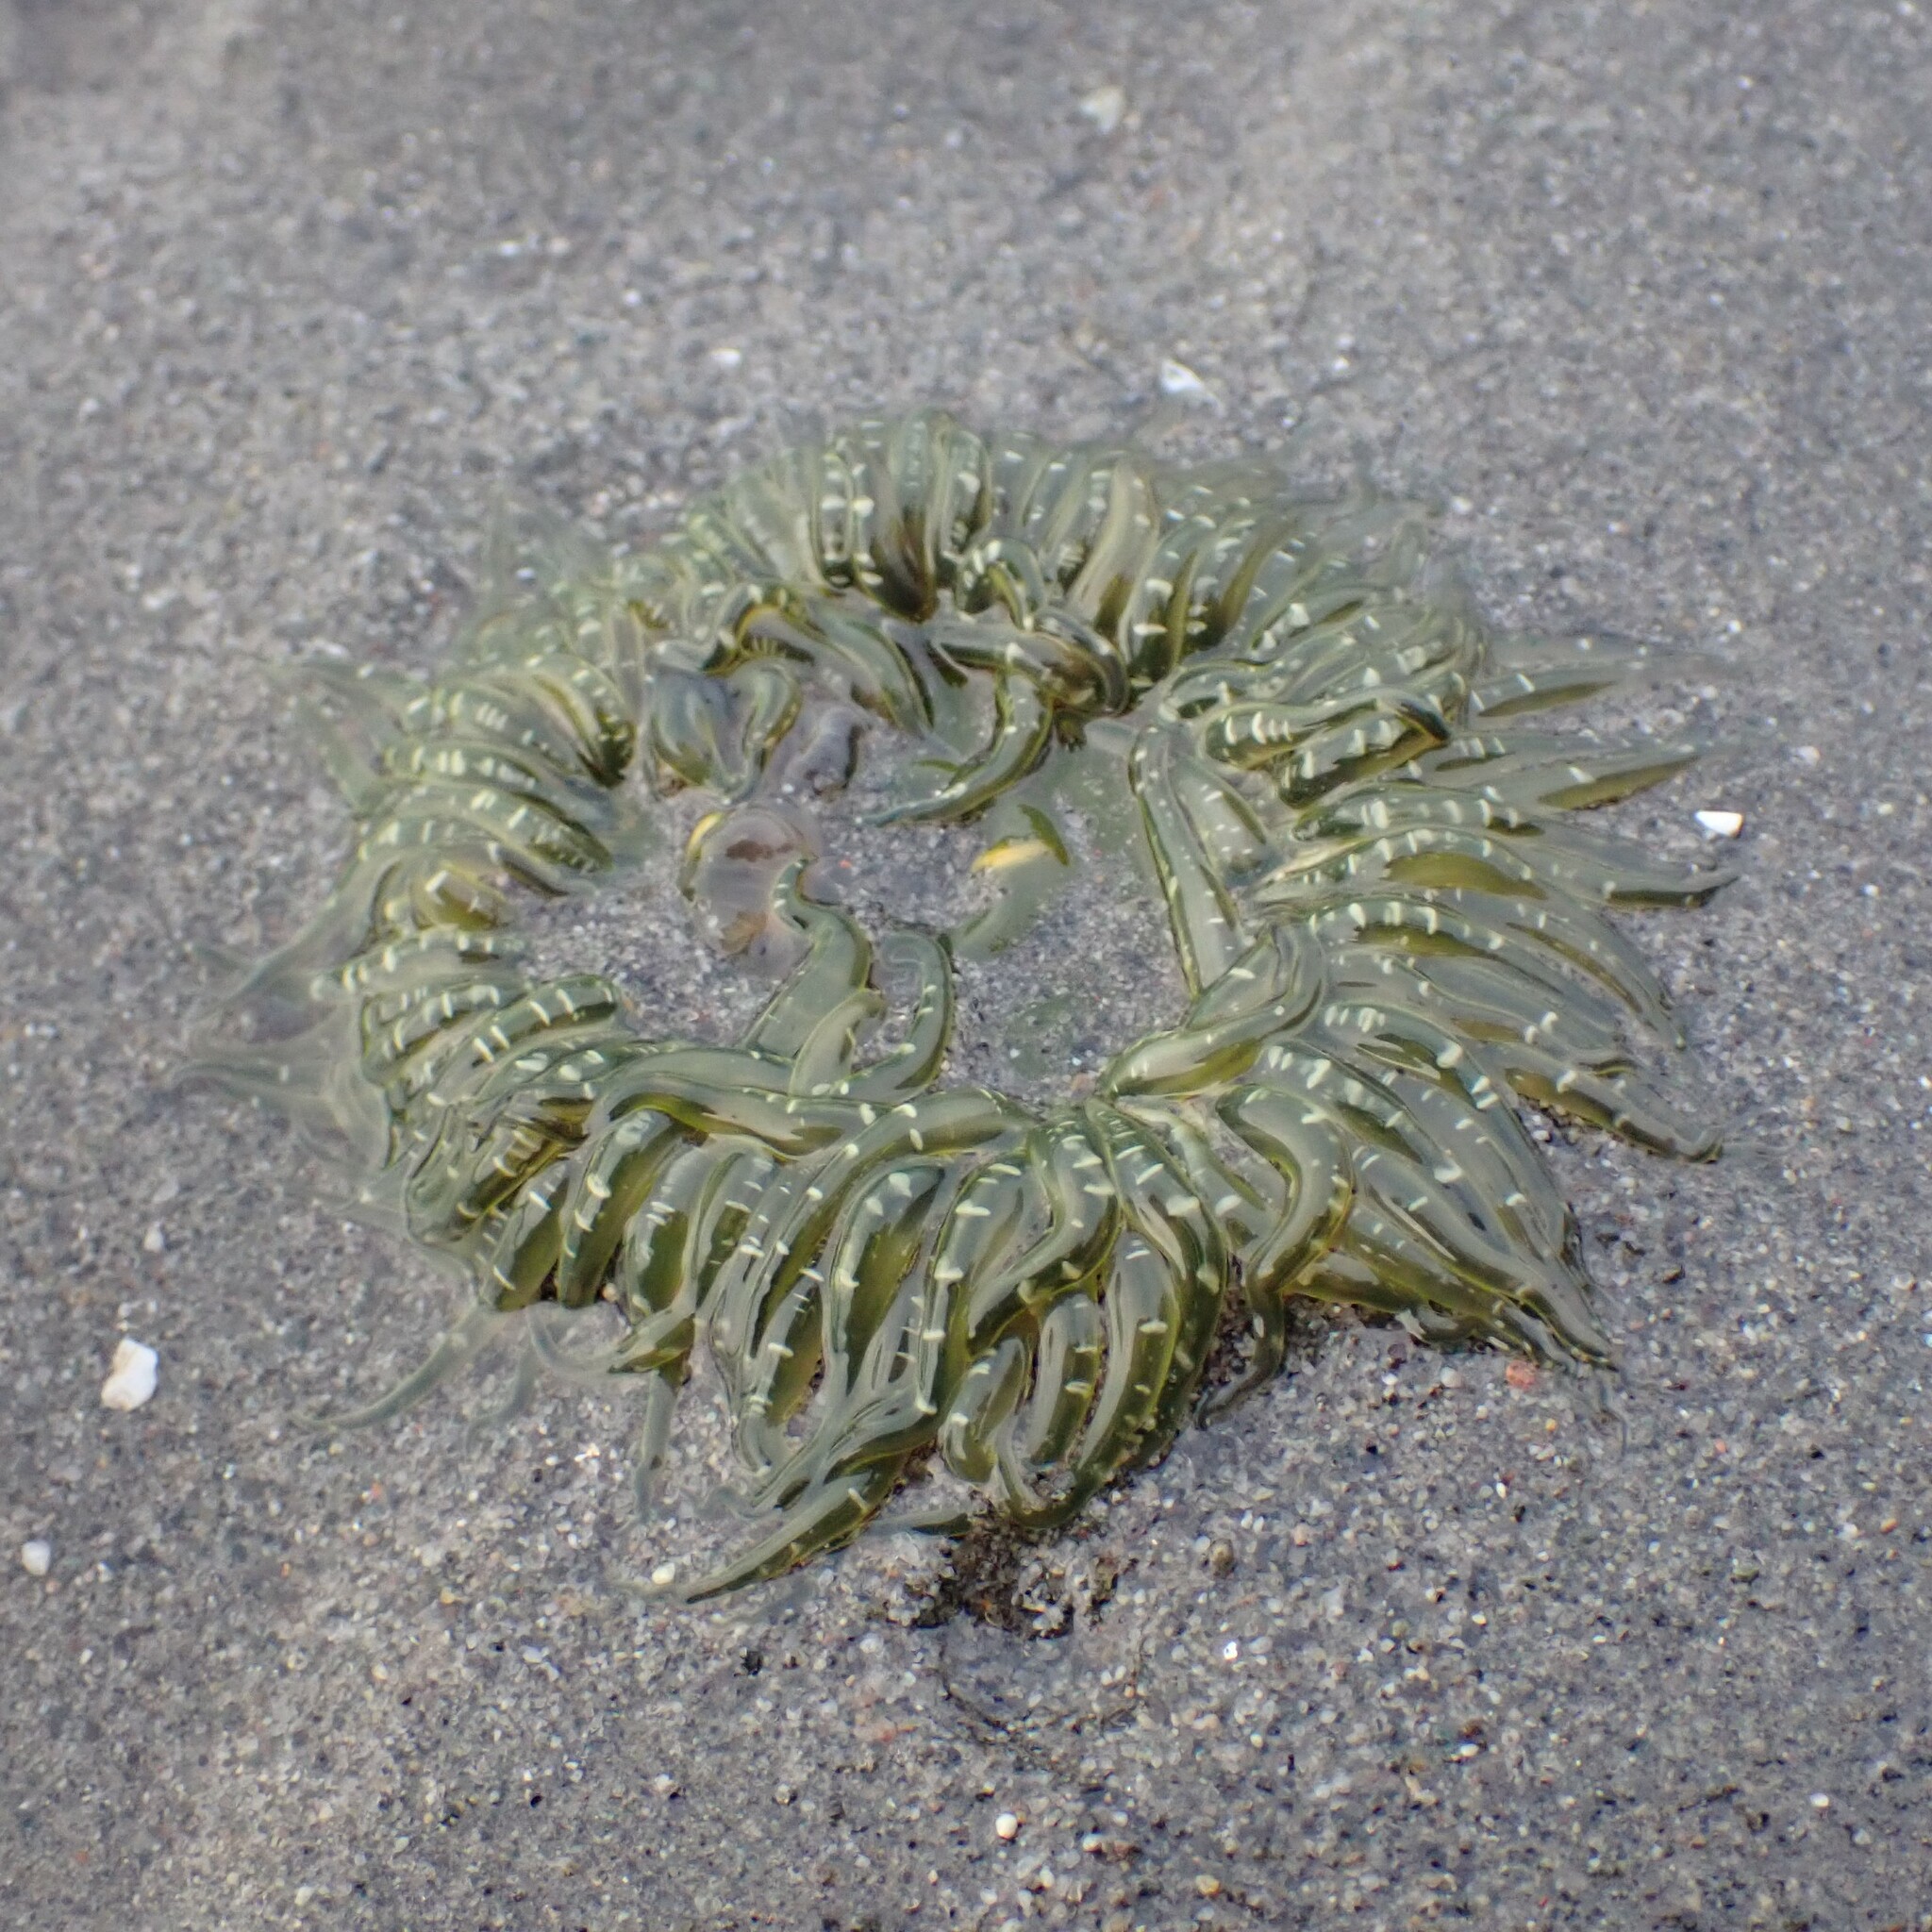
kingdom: Animalia
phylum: Cnidaria
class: Anthozoa
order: Actiniaria
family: Actiniidae
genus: Anthopleura
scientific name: Anthopleura artemisia
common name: Buried sea anemone
